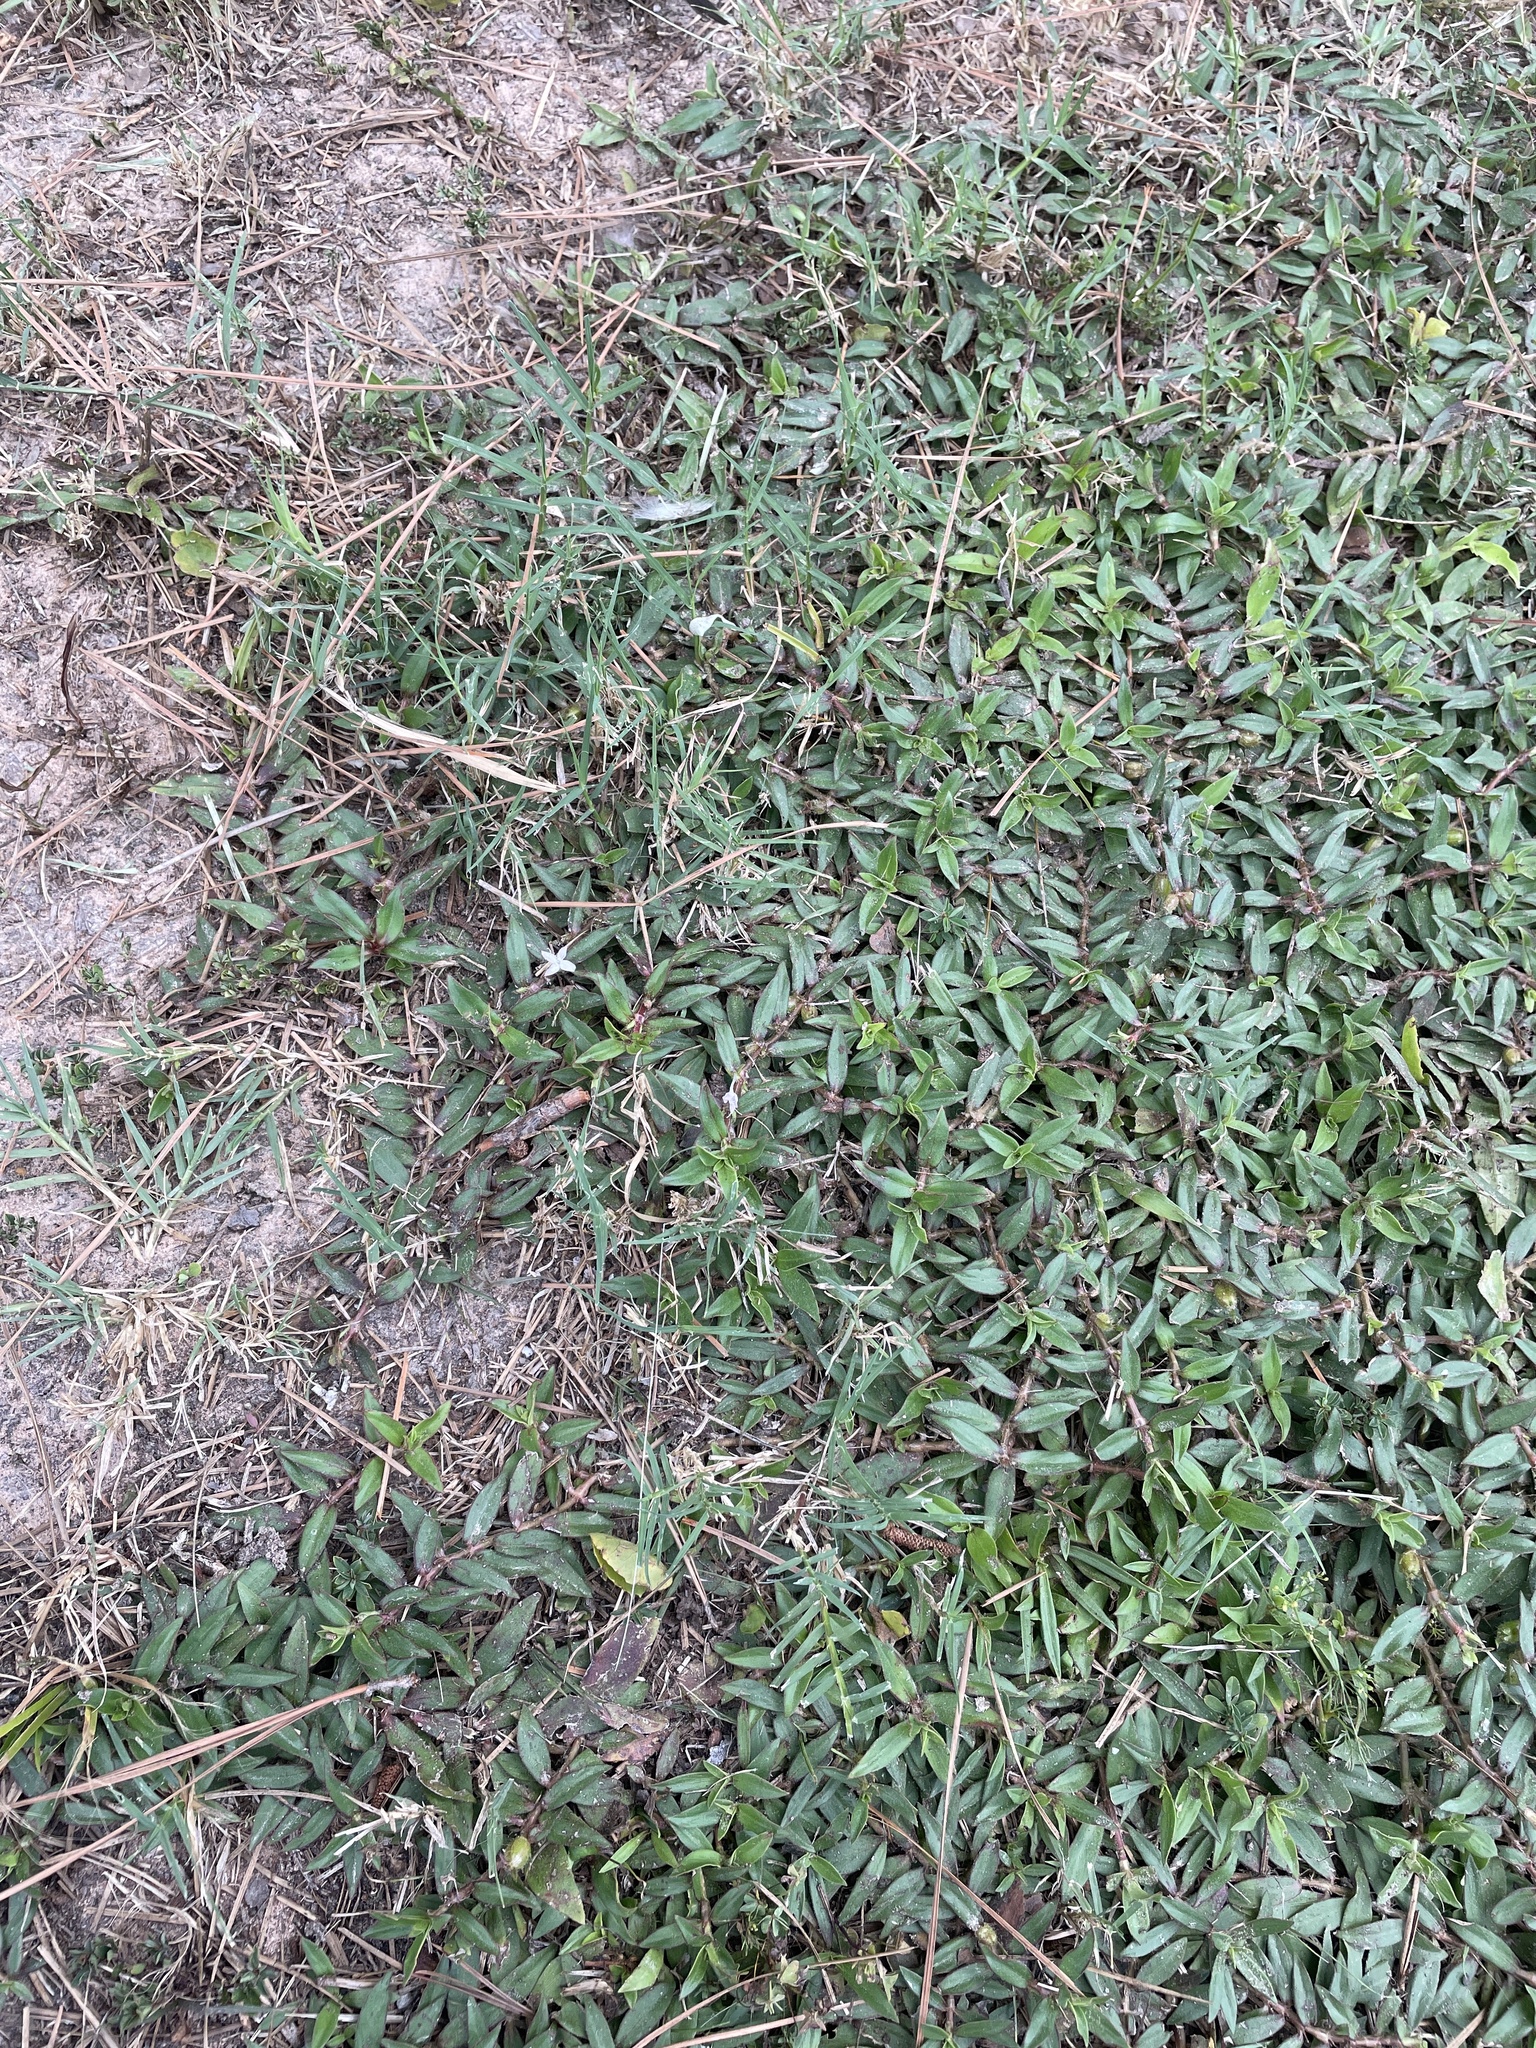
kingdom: Plantae
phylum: Tracheophyta
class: Magnoliopsida
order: Gentianales
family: Rubiaceae
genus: Diodia
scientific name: Diodia virginiana
